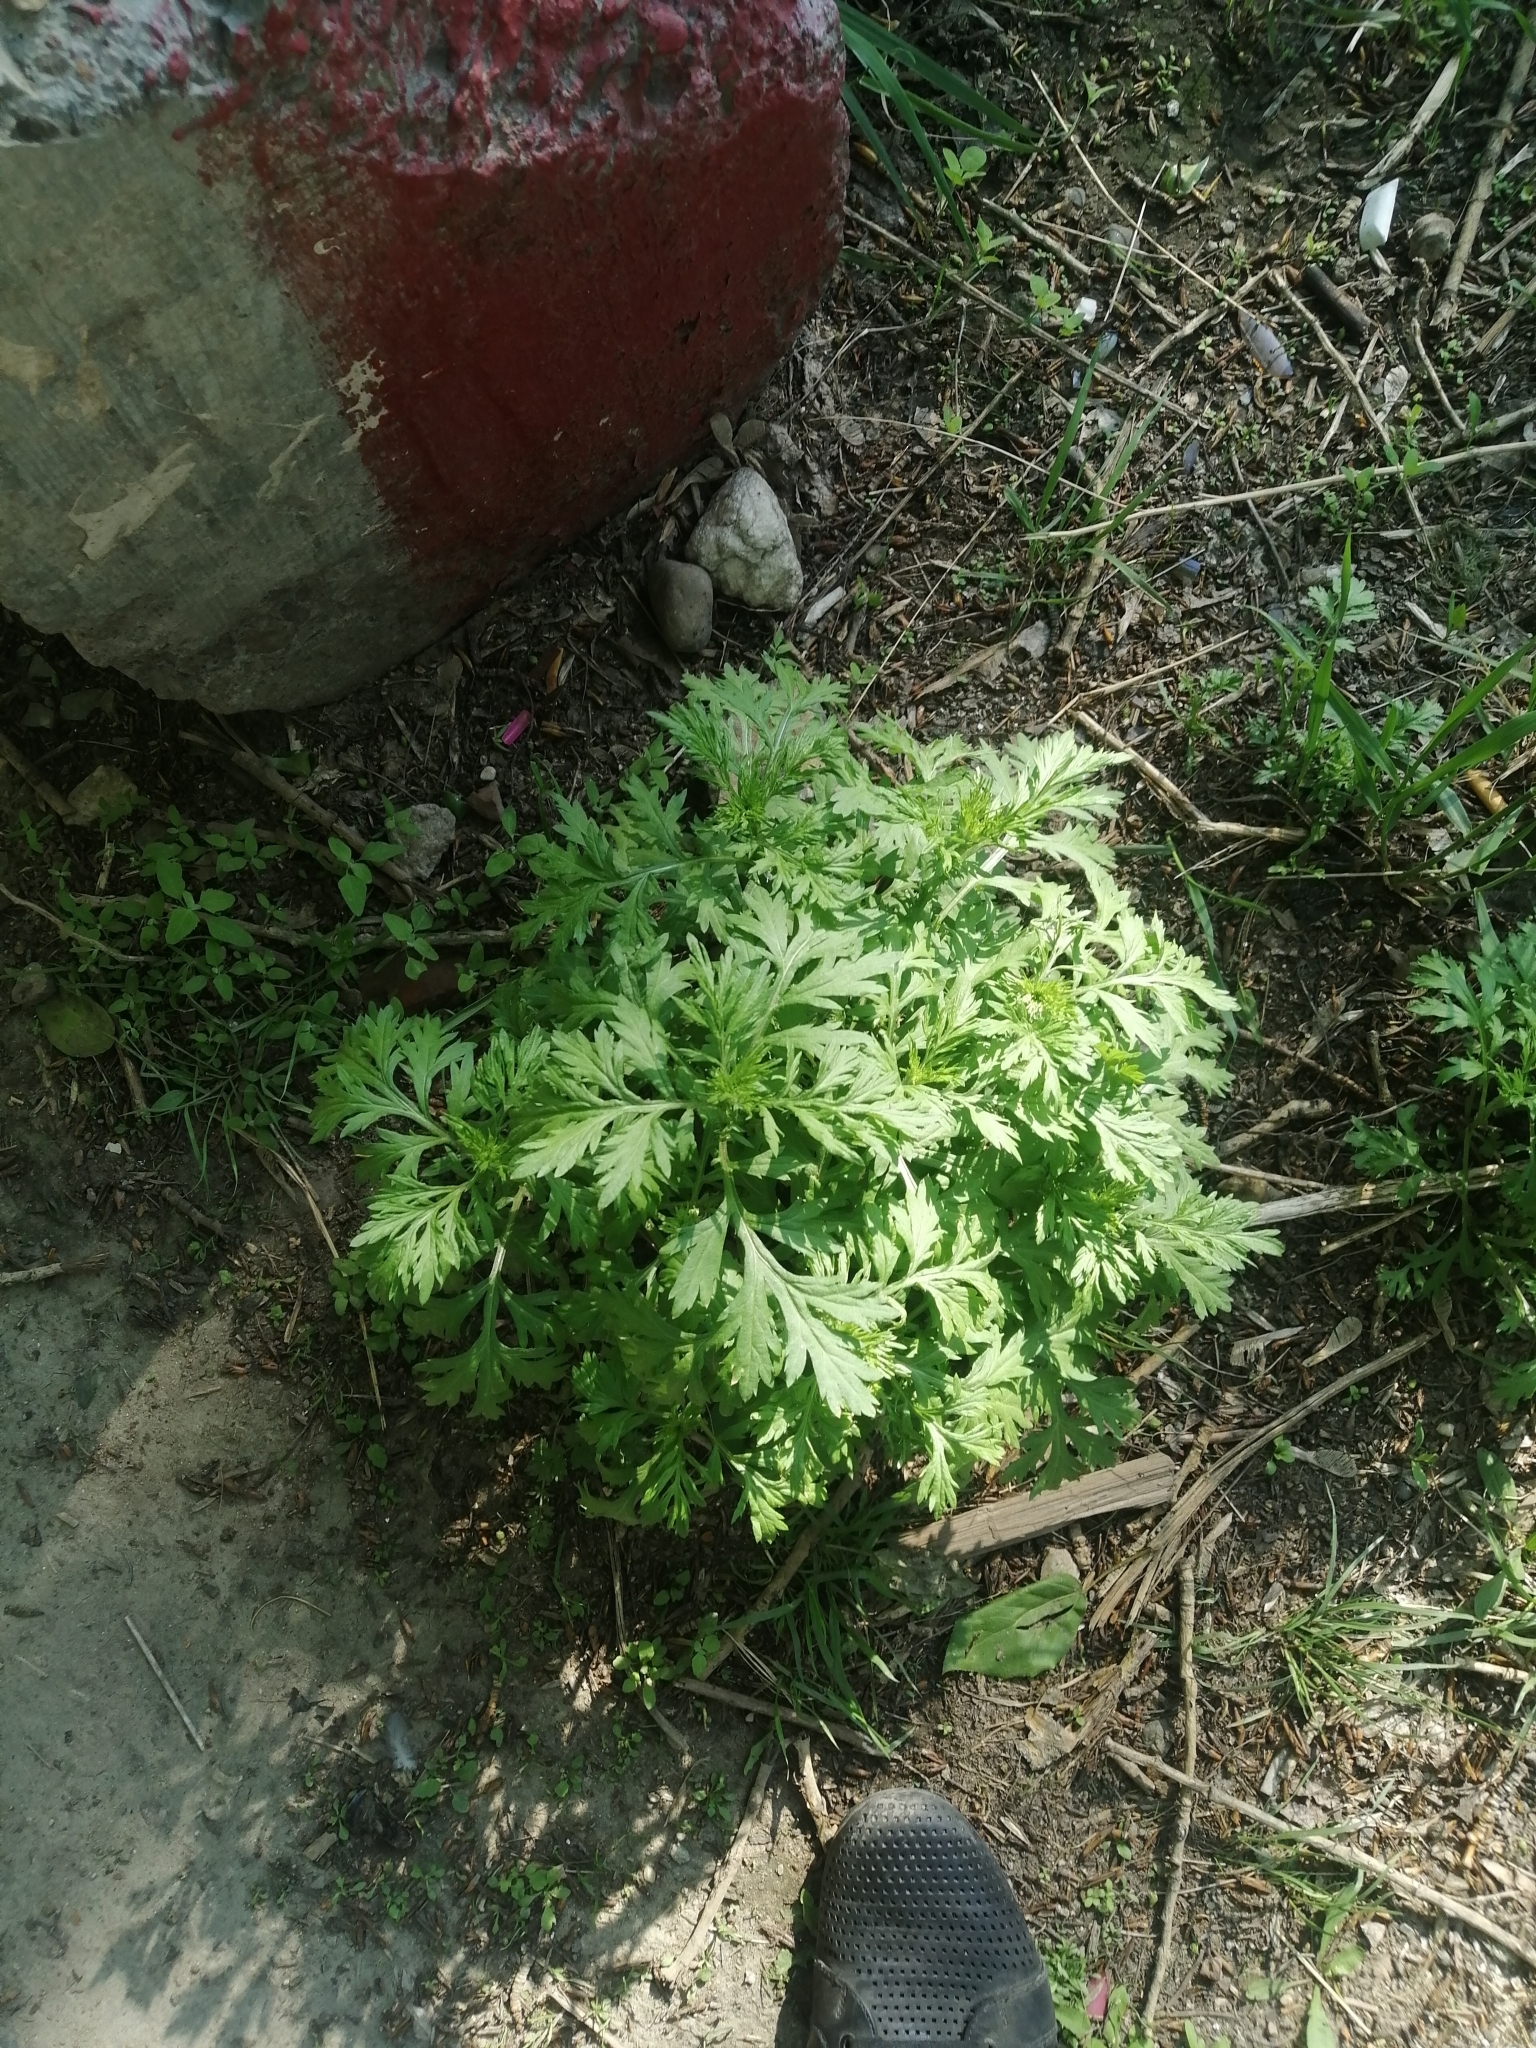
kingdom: Plantae
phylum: Tracheophyta
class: Magnoliopsida
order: Asterales
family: Asteraceae
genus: Artemisia
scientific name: Artemisia sieversiana
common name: Sieversian wormwood
